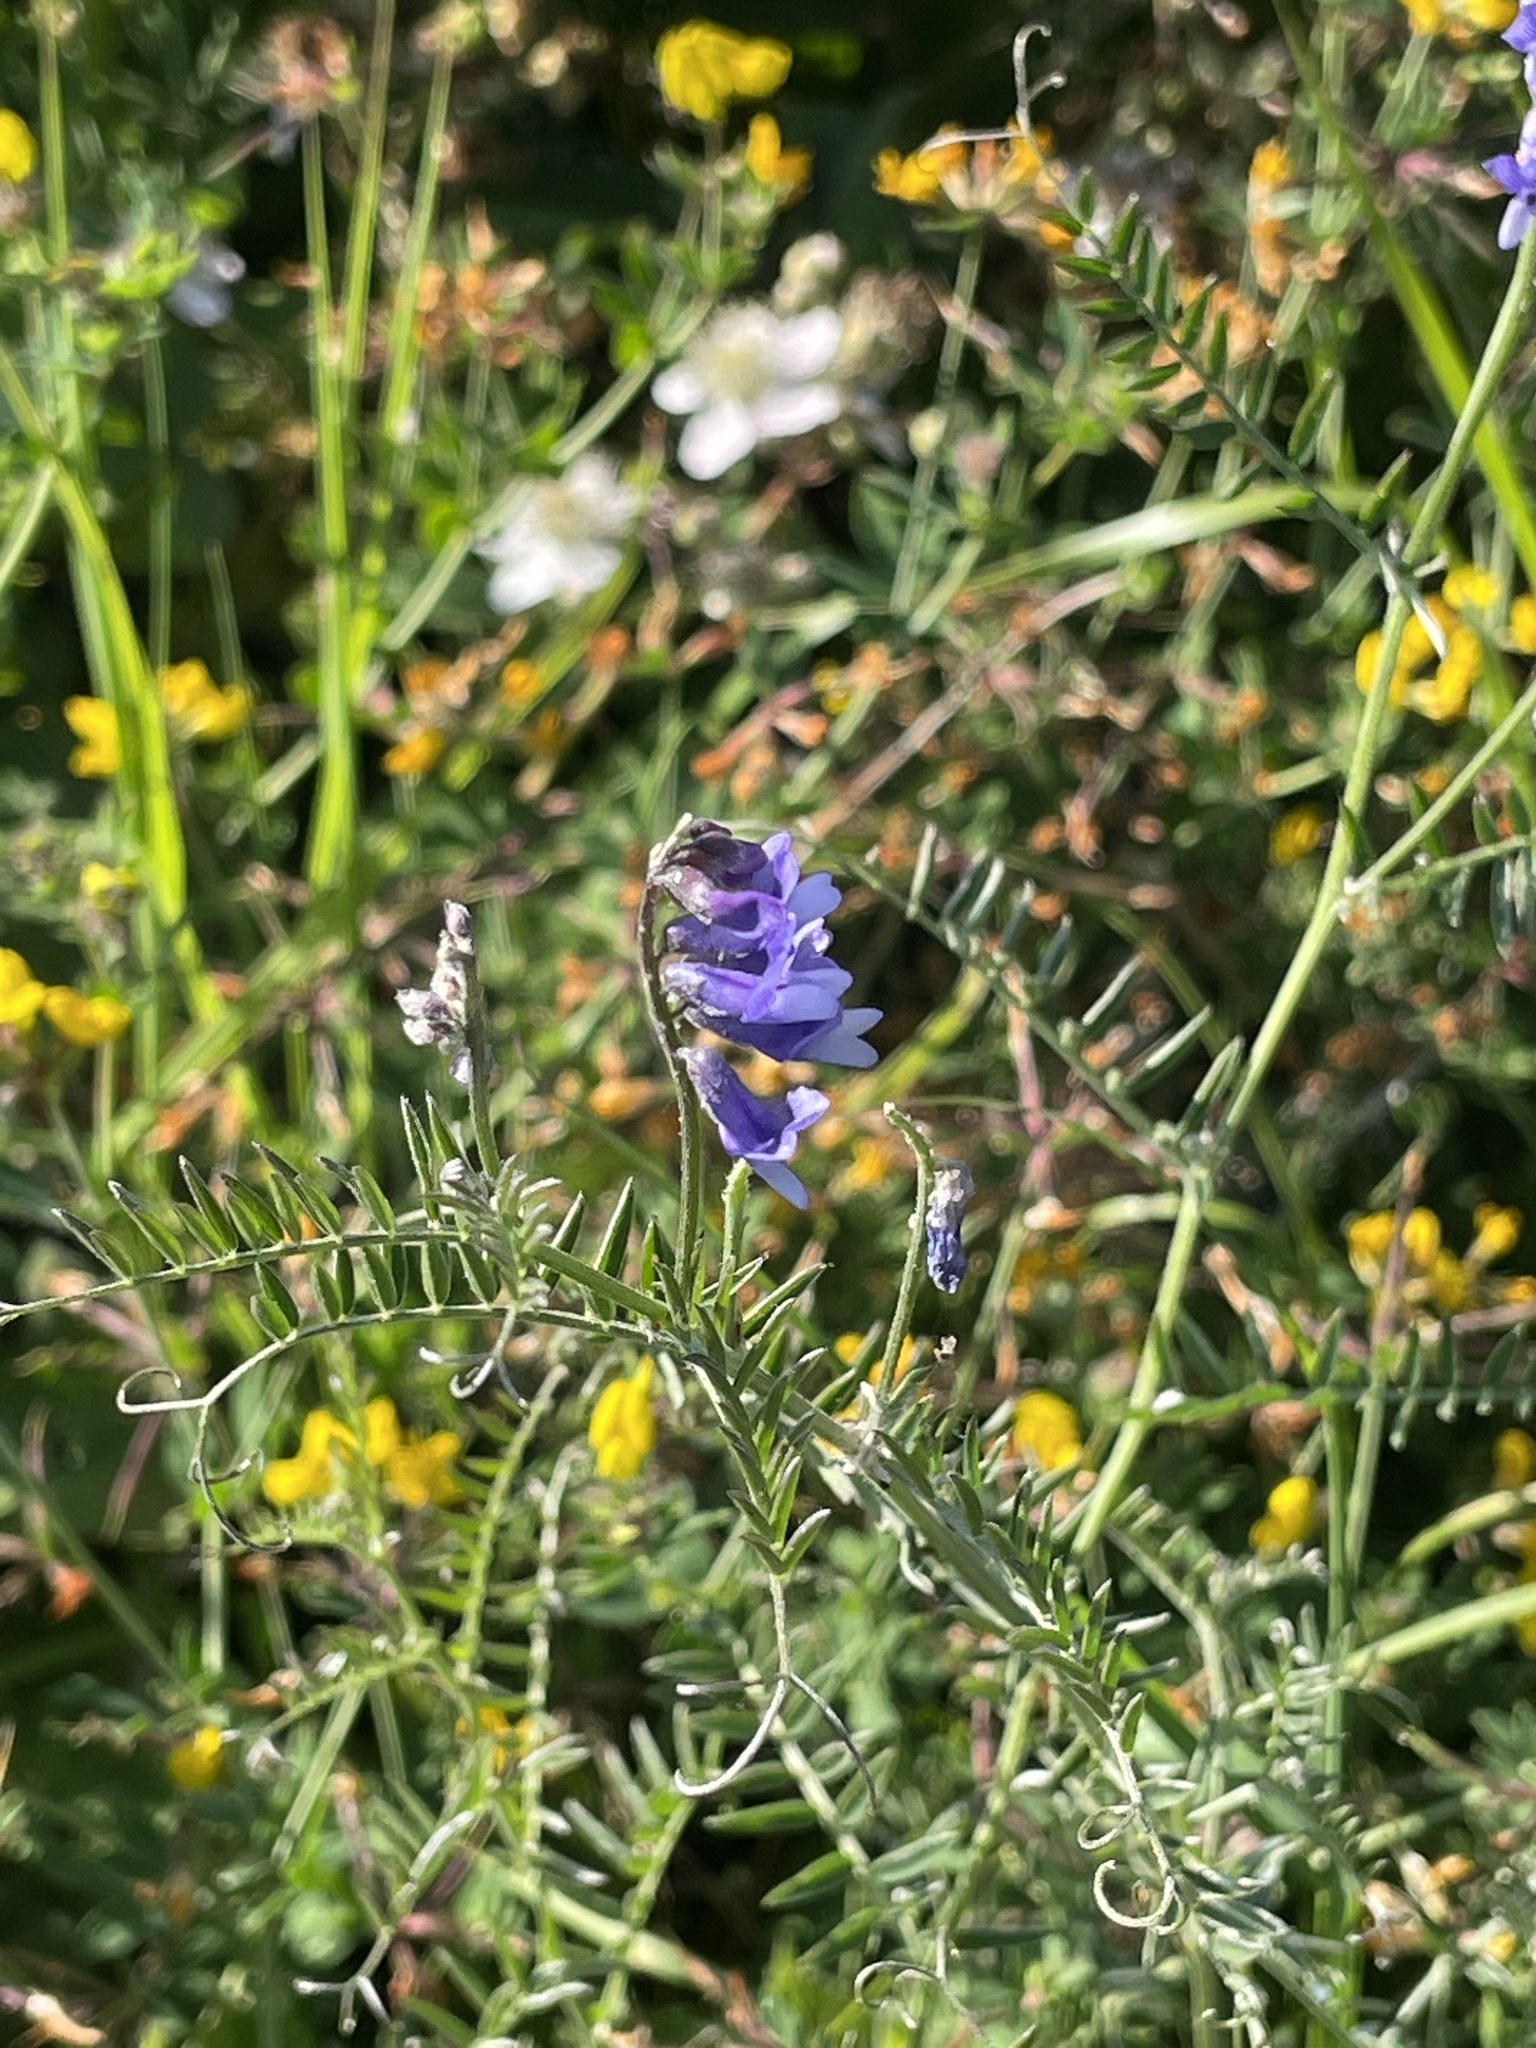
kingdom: Plantae
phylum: Tracheophyta
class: Magnoliopsida
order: Fabales
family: Fabaceae
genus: Vicia
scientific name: Vicia cracca
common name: Bird vetch
